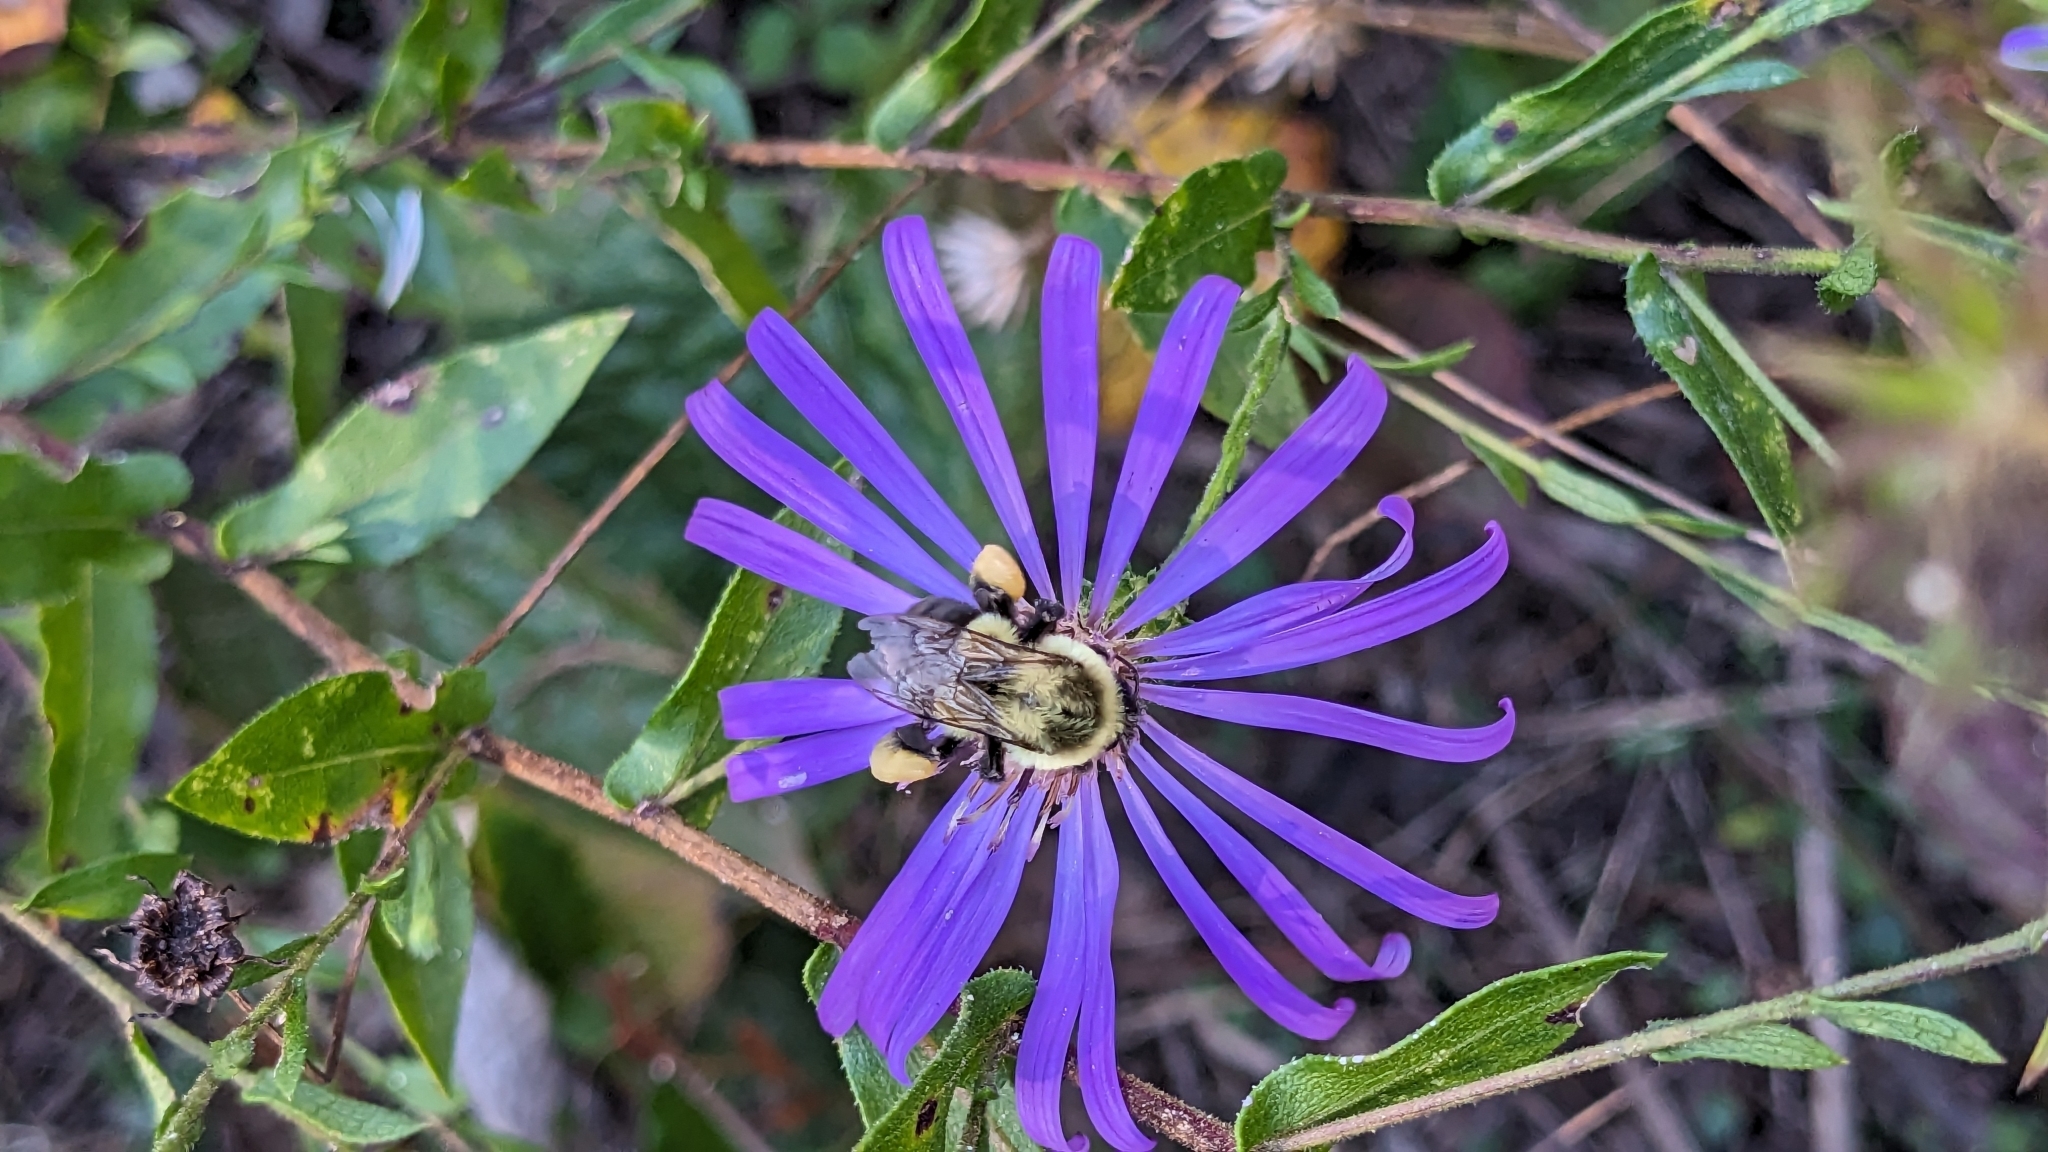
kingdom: Animalia
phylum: Arthropoda
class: Insecta
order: Hymenoptera
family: Apidae
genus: Bombus
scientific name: Bombus impatiens
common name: Common eastern bumble bee
